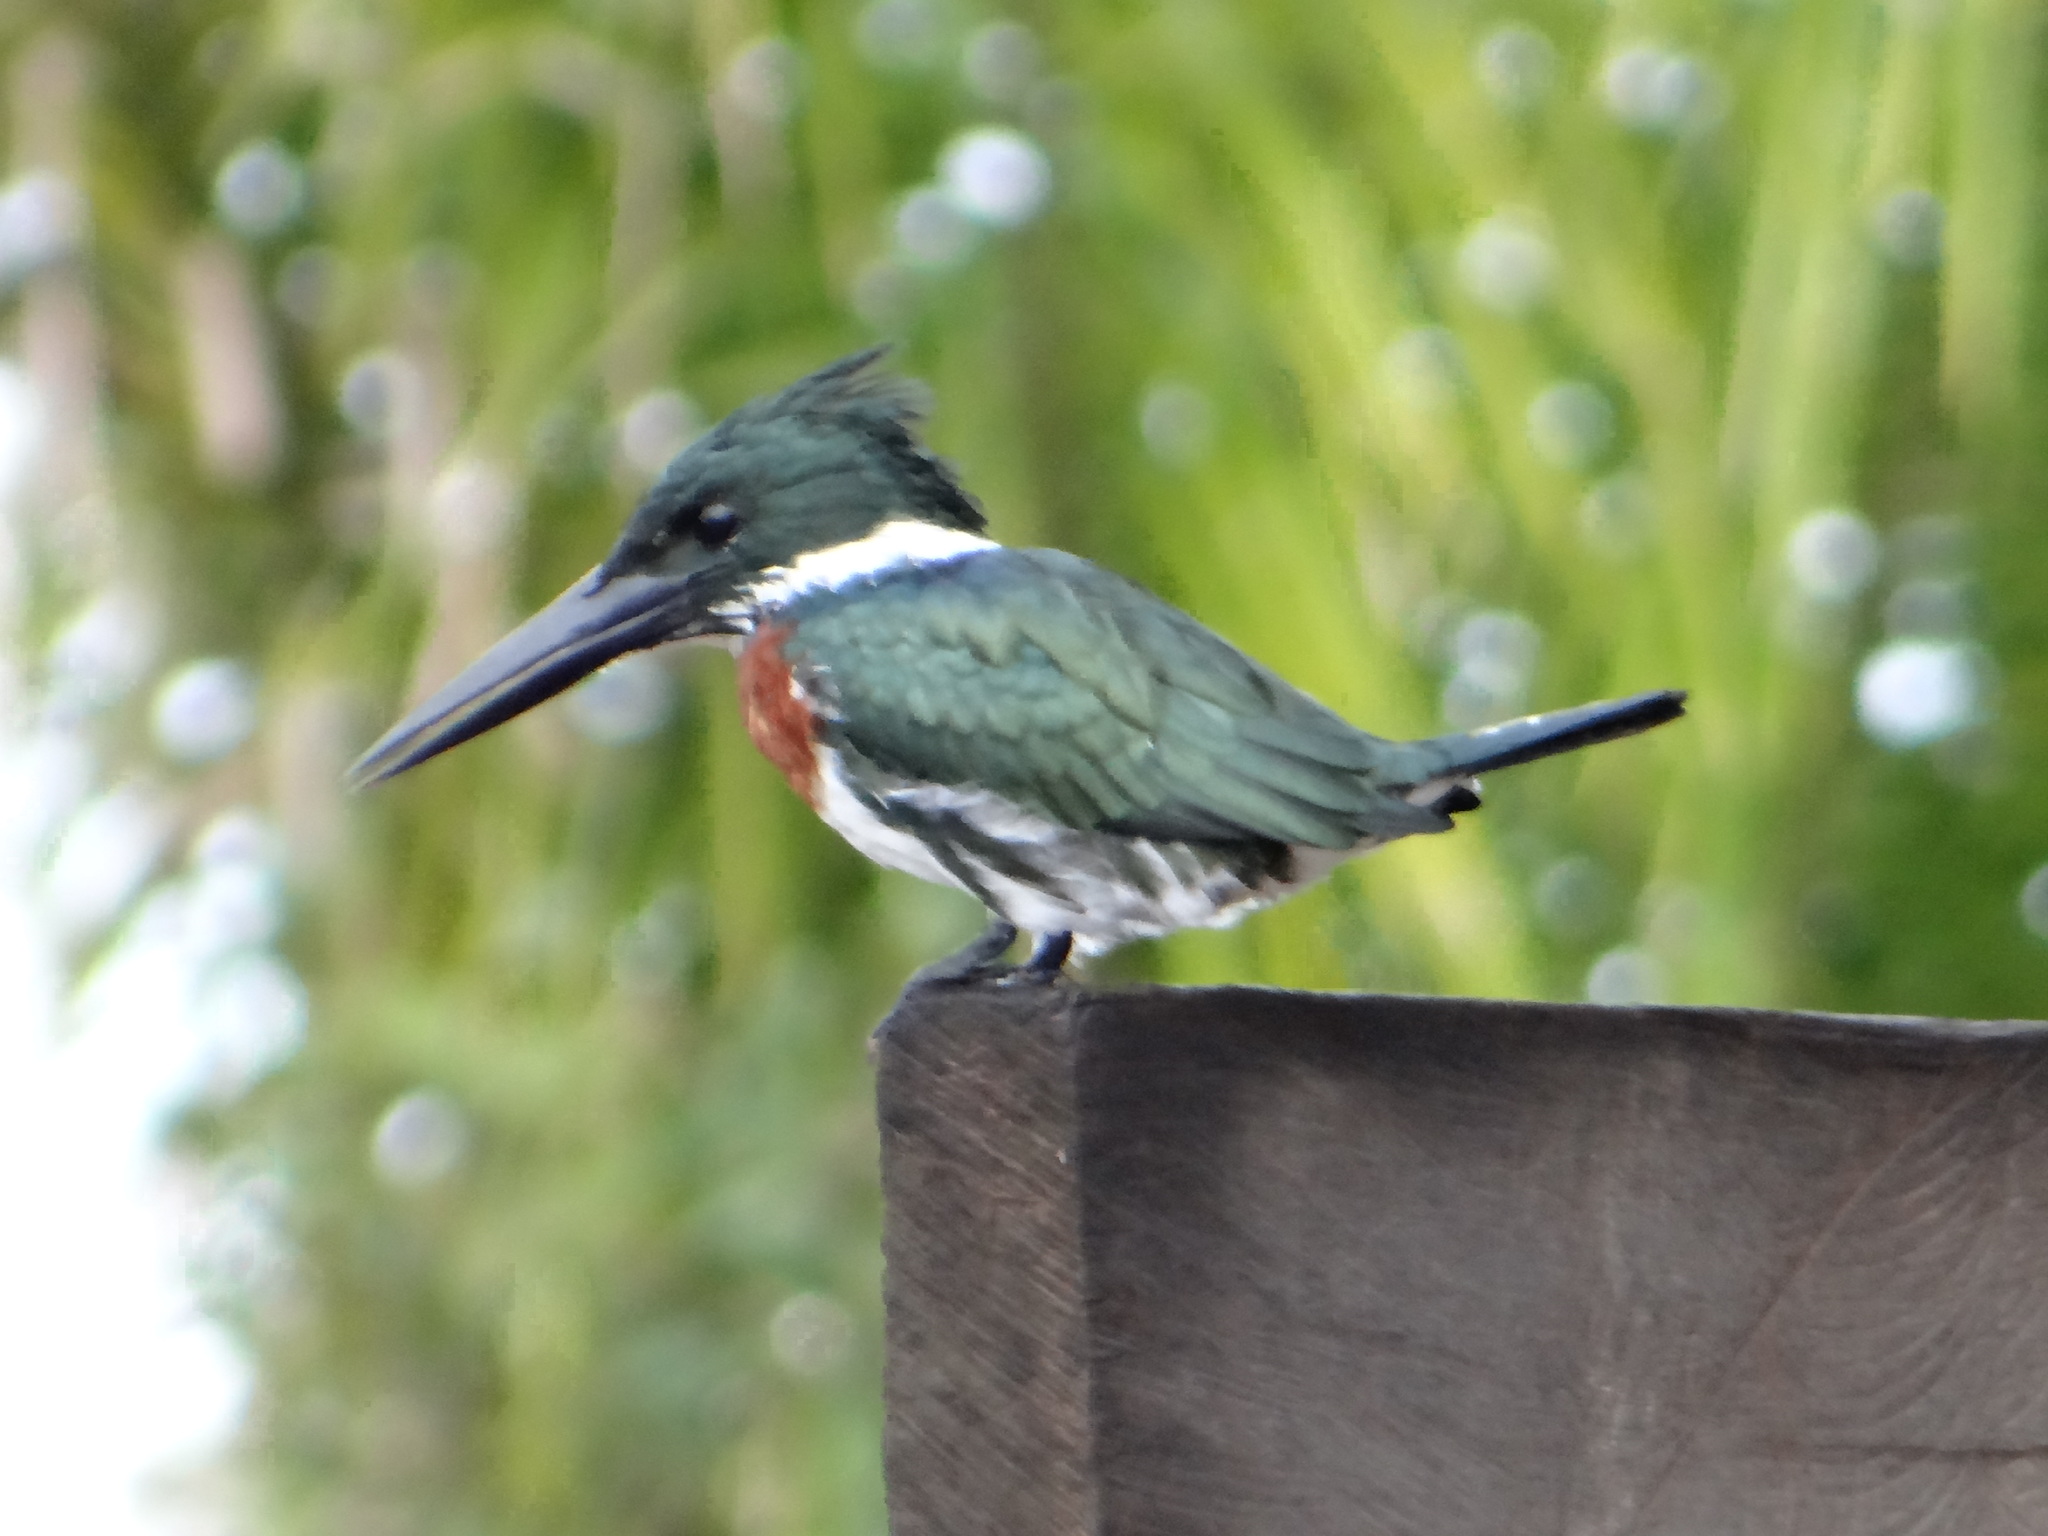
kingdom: Animalia
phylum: Chordata
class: Aves
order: Coraciiformes
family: Alcedinidae
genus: Chloroceryle
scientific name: Chloroceryle amazona
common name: Amazon kingfisher
